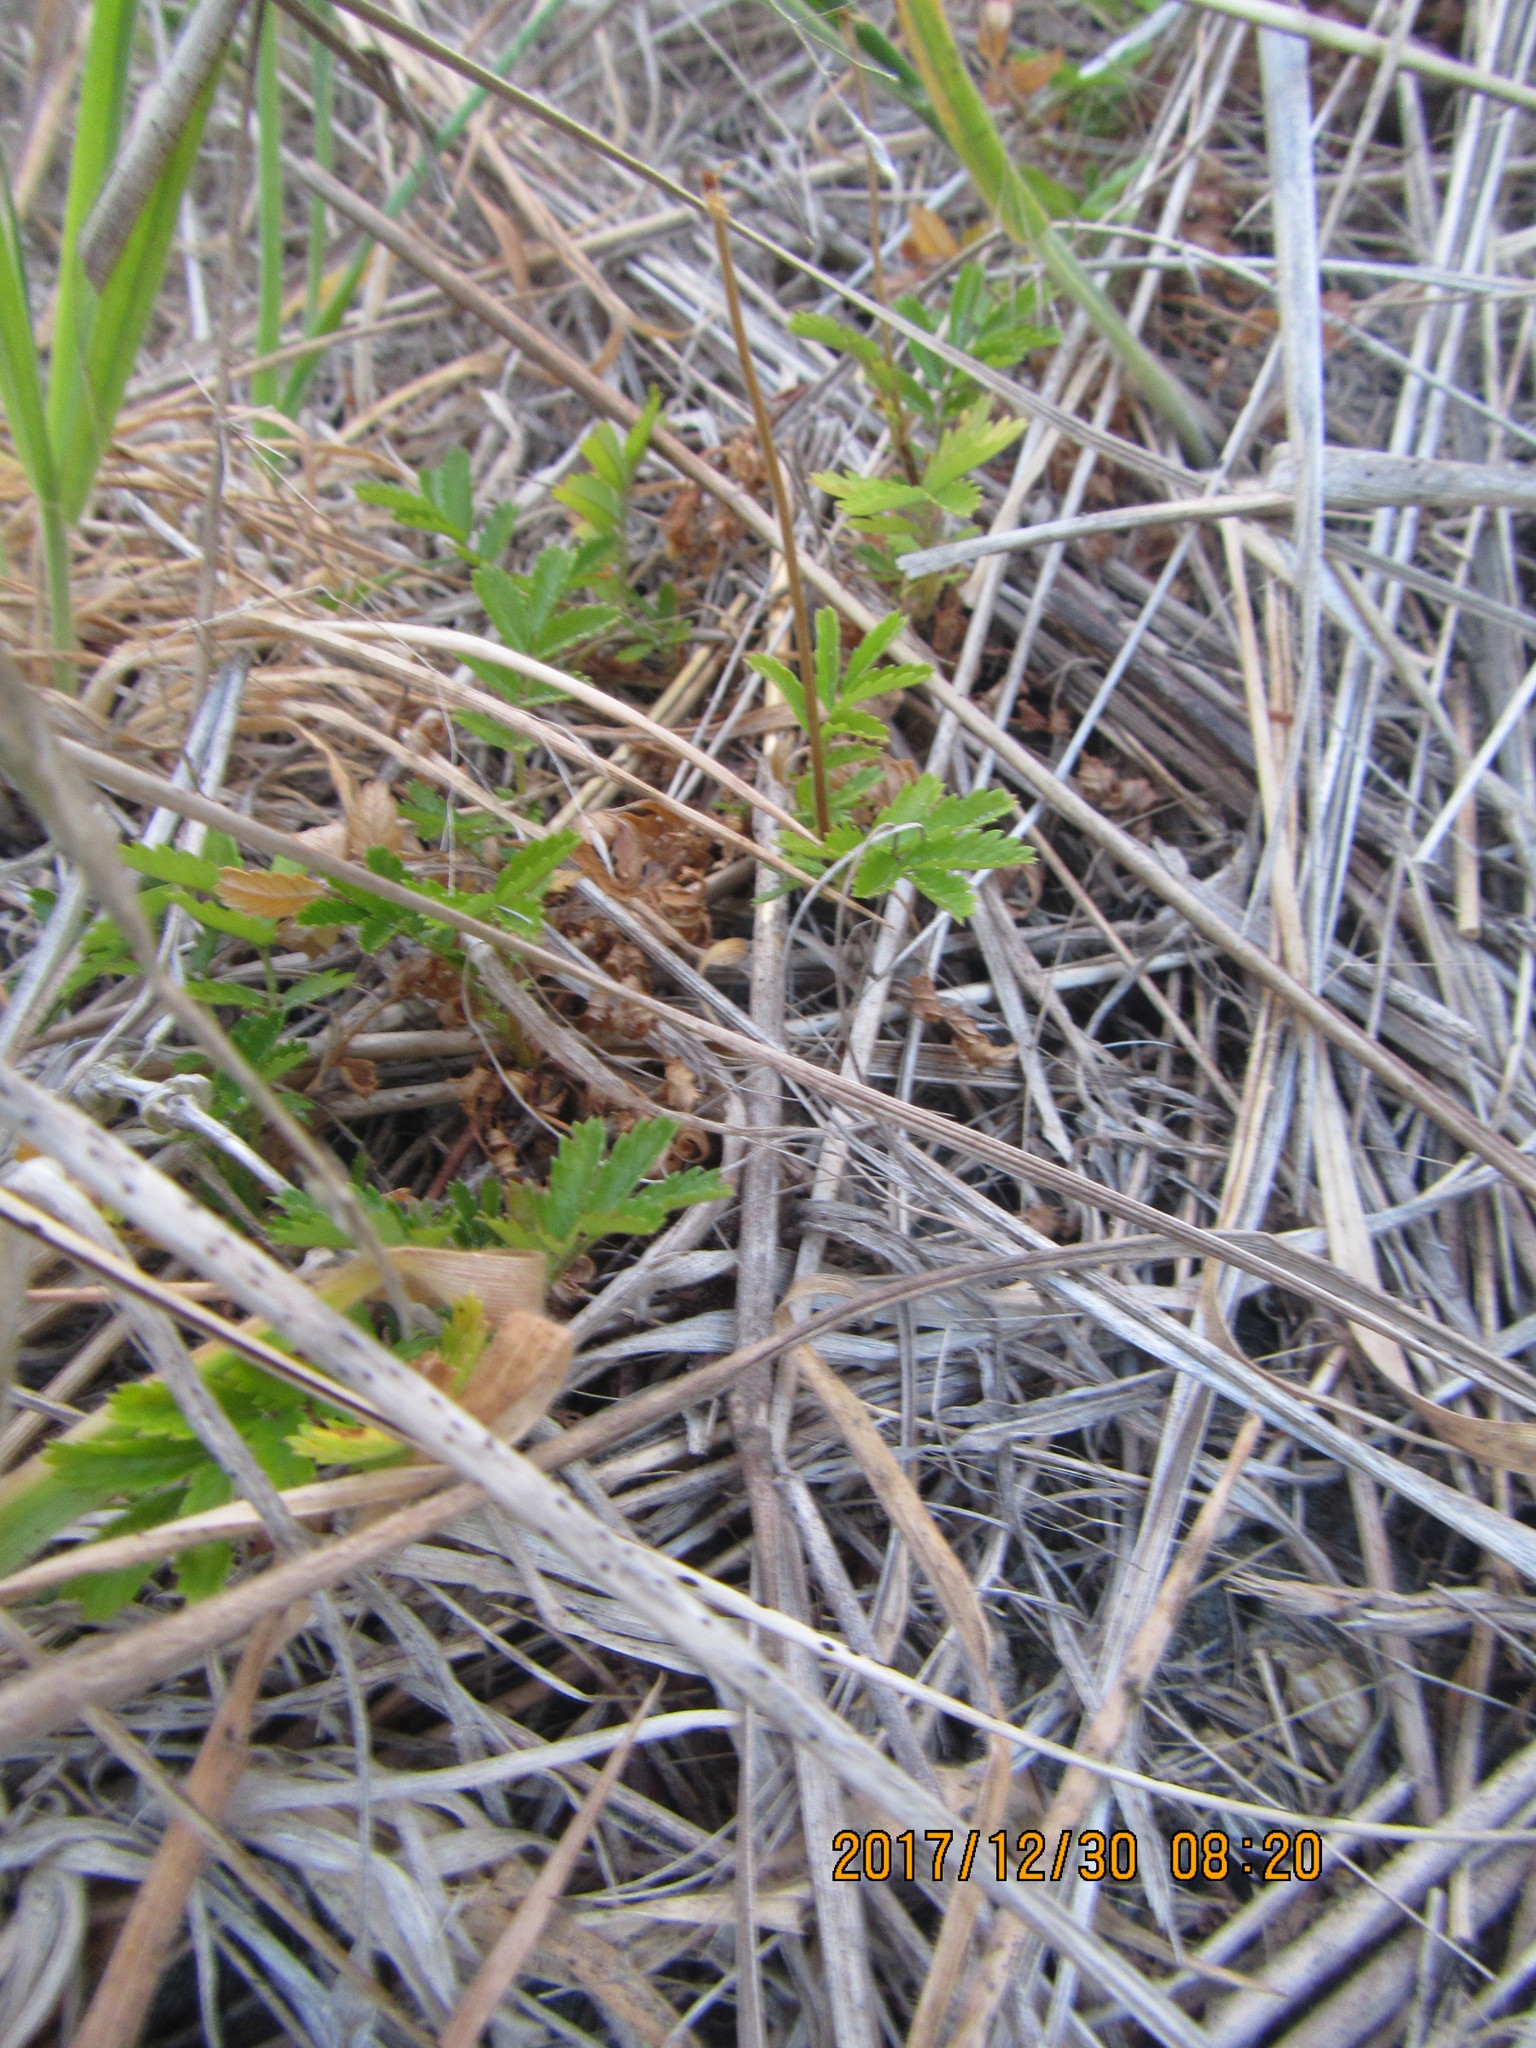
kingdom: Plantae
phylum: Tracheophyta
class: Magnoliopsida
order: Rosales
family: Rosaceae
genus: Acaena
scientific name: Acaena novae-zelandiae
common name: Pirri-pirri-bur
